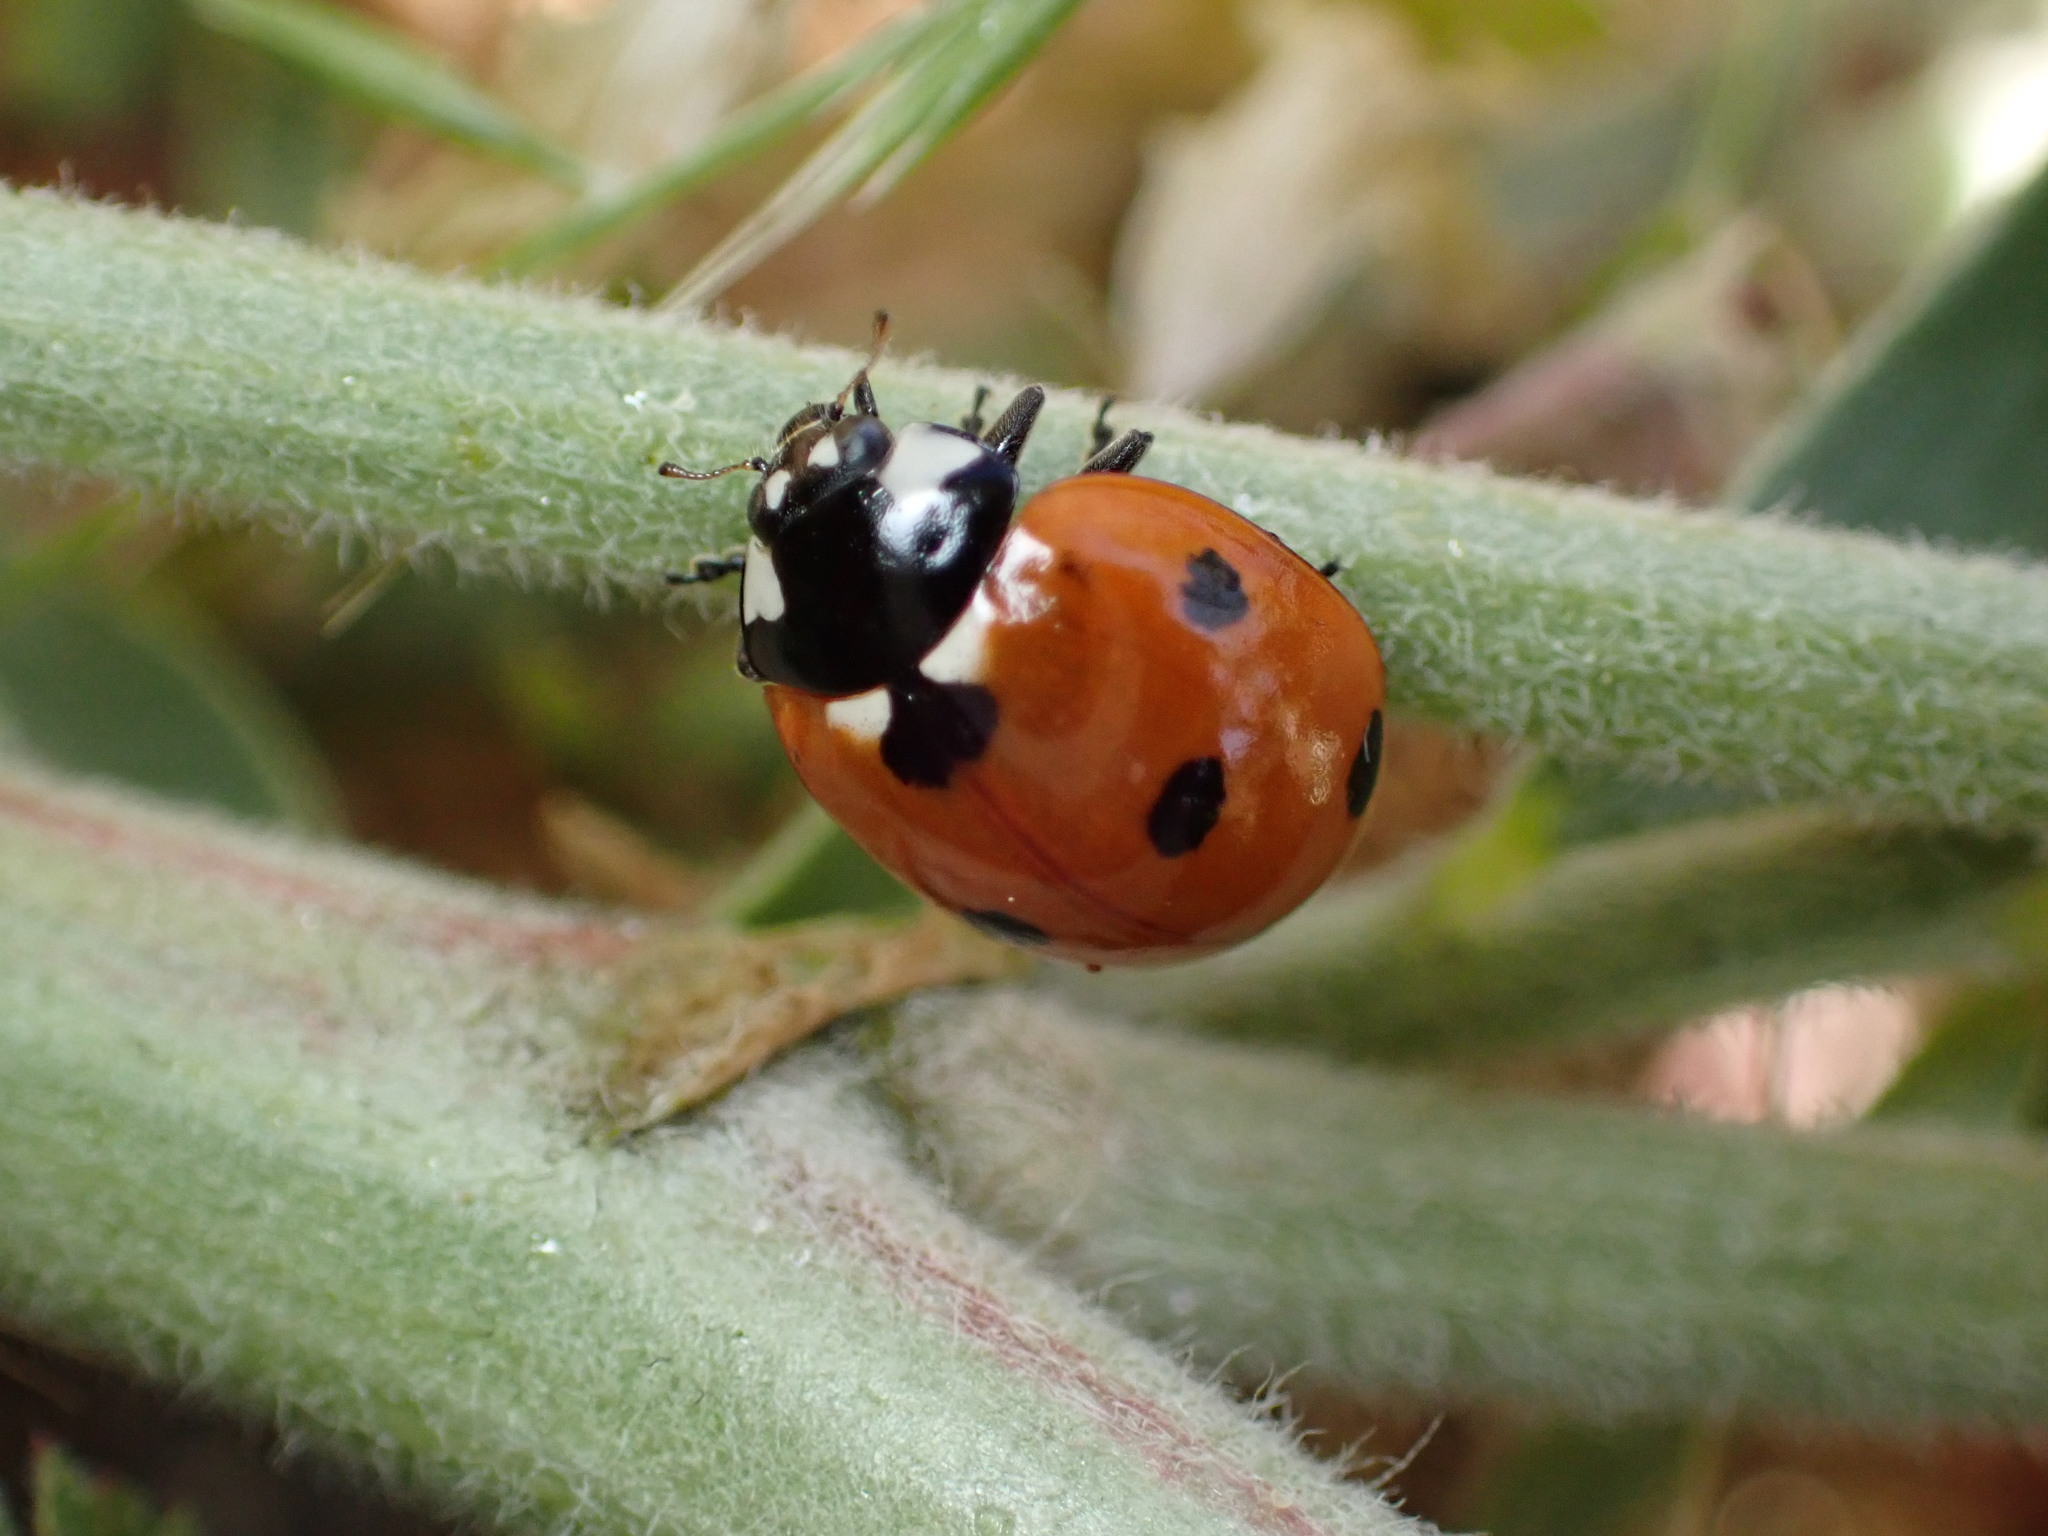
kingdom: Animalia
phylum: Arthropoda
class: Insecta
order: Coleoptera
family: Coccinellidae
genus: Coccinella
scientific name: Coccinella septempunctata
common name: Sevenspotted lady beetle
